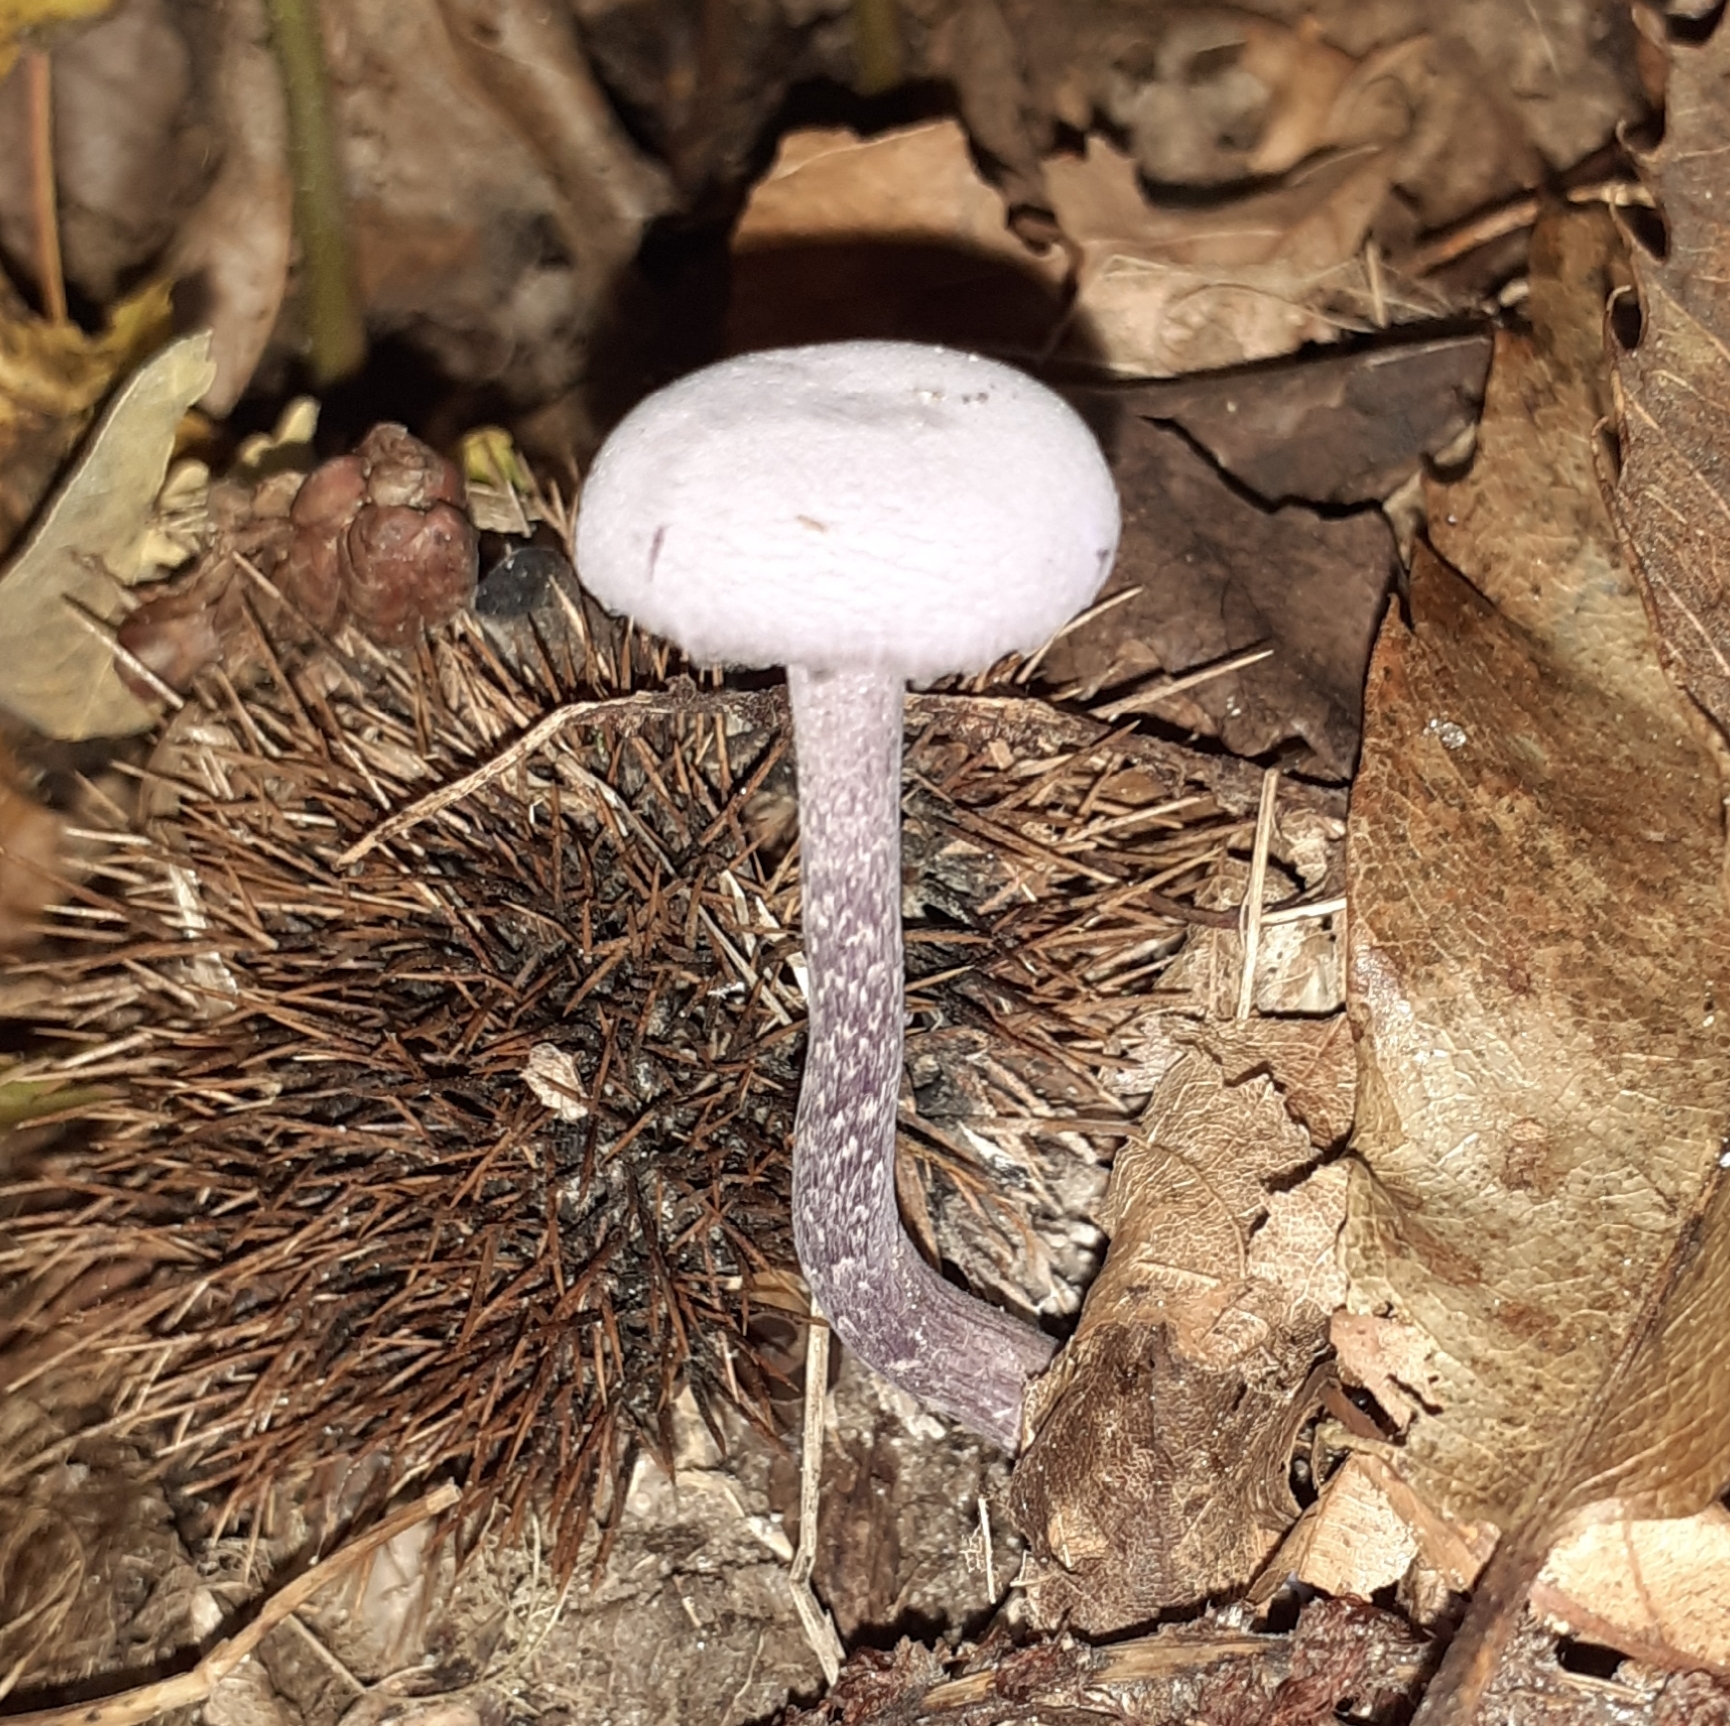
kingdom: Fungi
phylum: Basidiomycota
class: Agaricomycetes
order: Agaricales
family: Hydnangiaceae
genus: Laccaria
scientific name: Laccaria amethystina
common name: Amethyst deceiver
